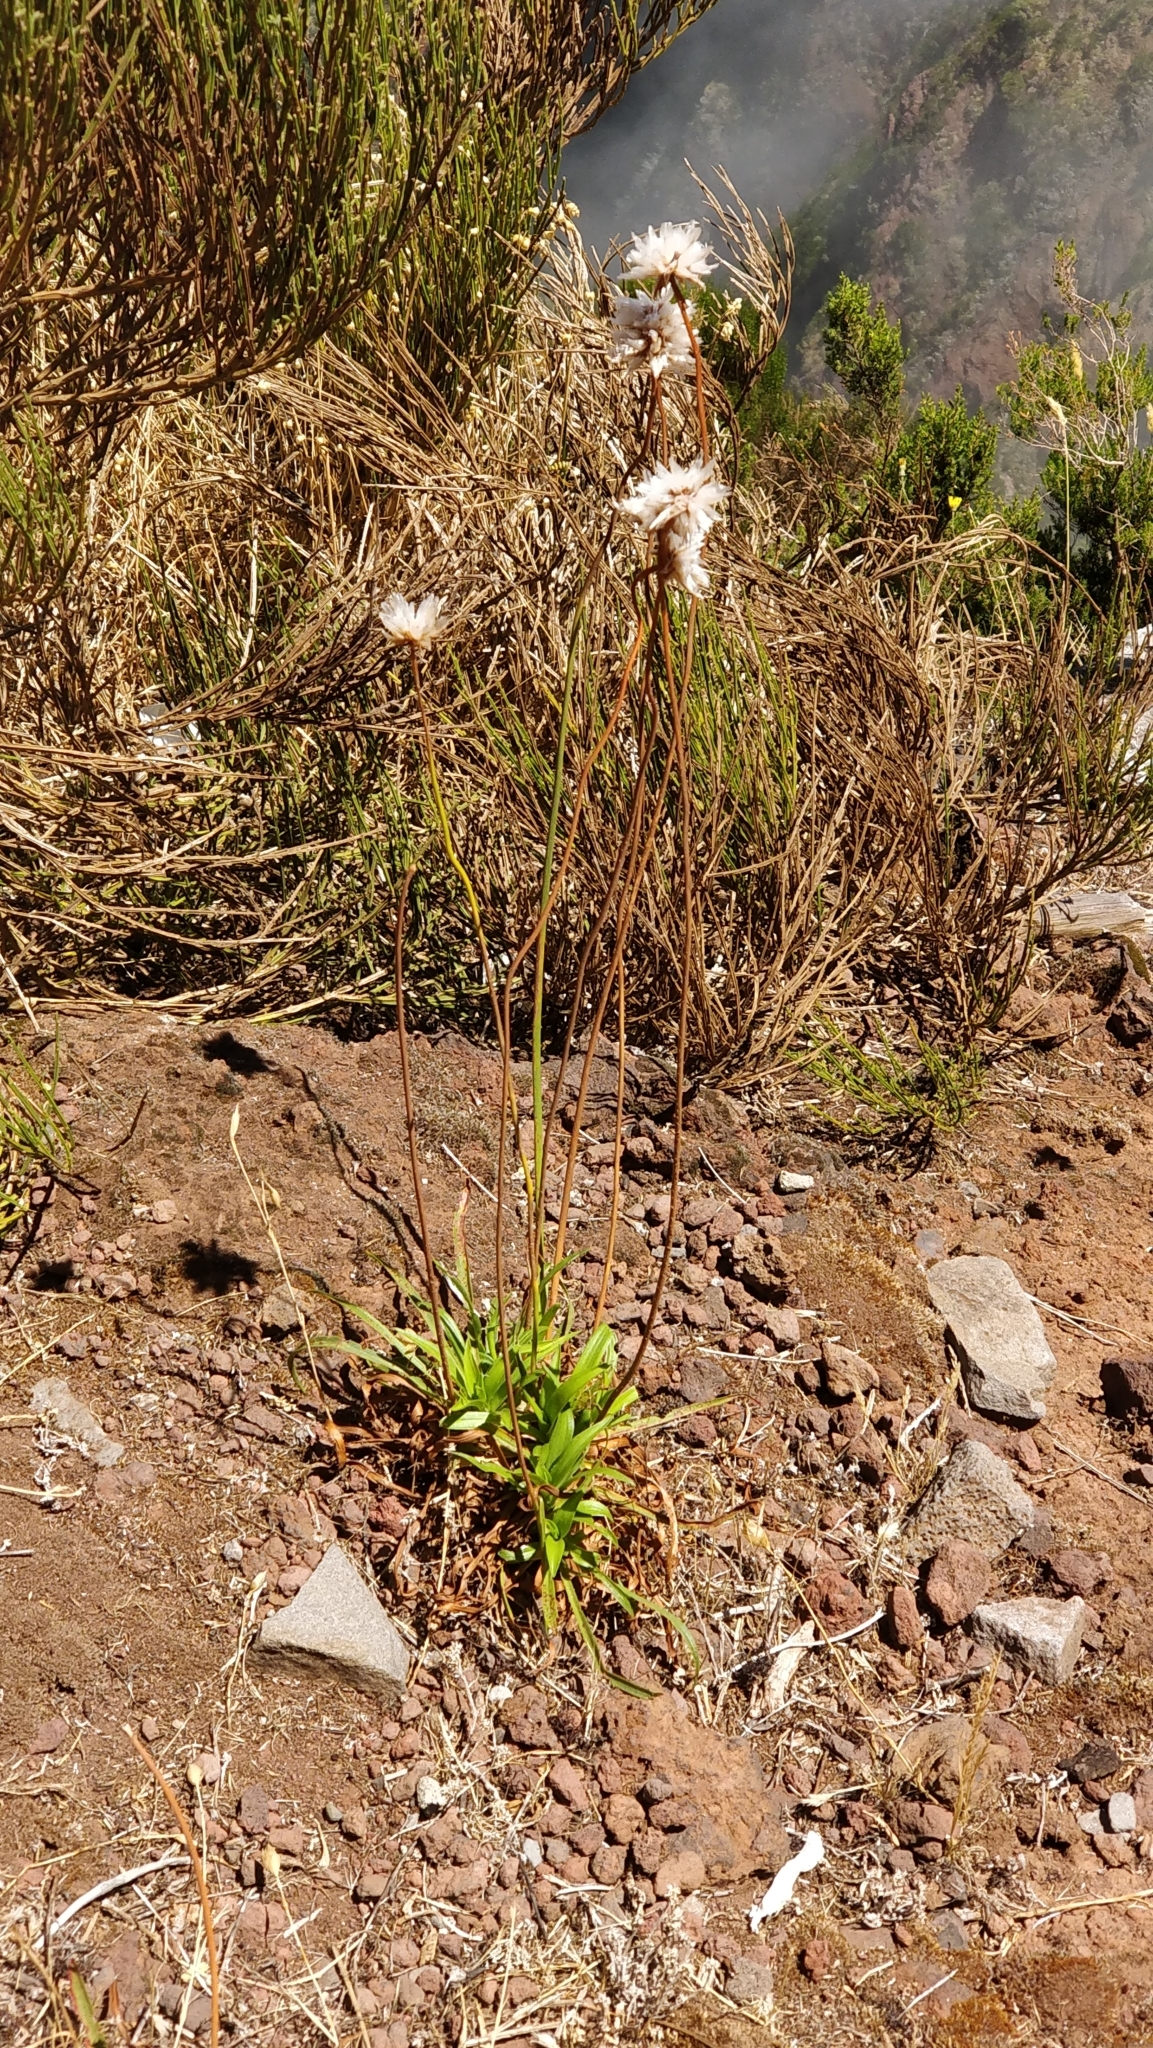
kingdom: Plantae
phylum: Tracheophyta
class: Magnoliopsida
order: Caryophyllales
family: Plumbaginaceae
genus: Armeria
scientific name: Armeria maderensis
